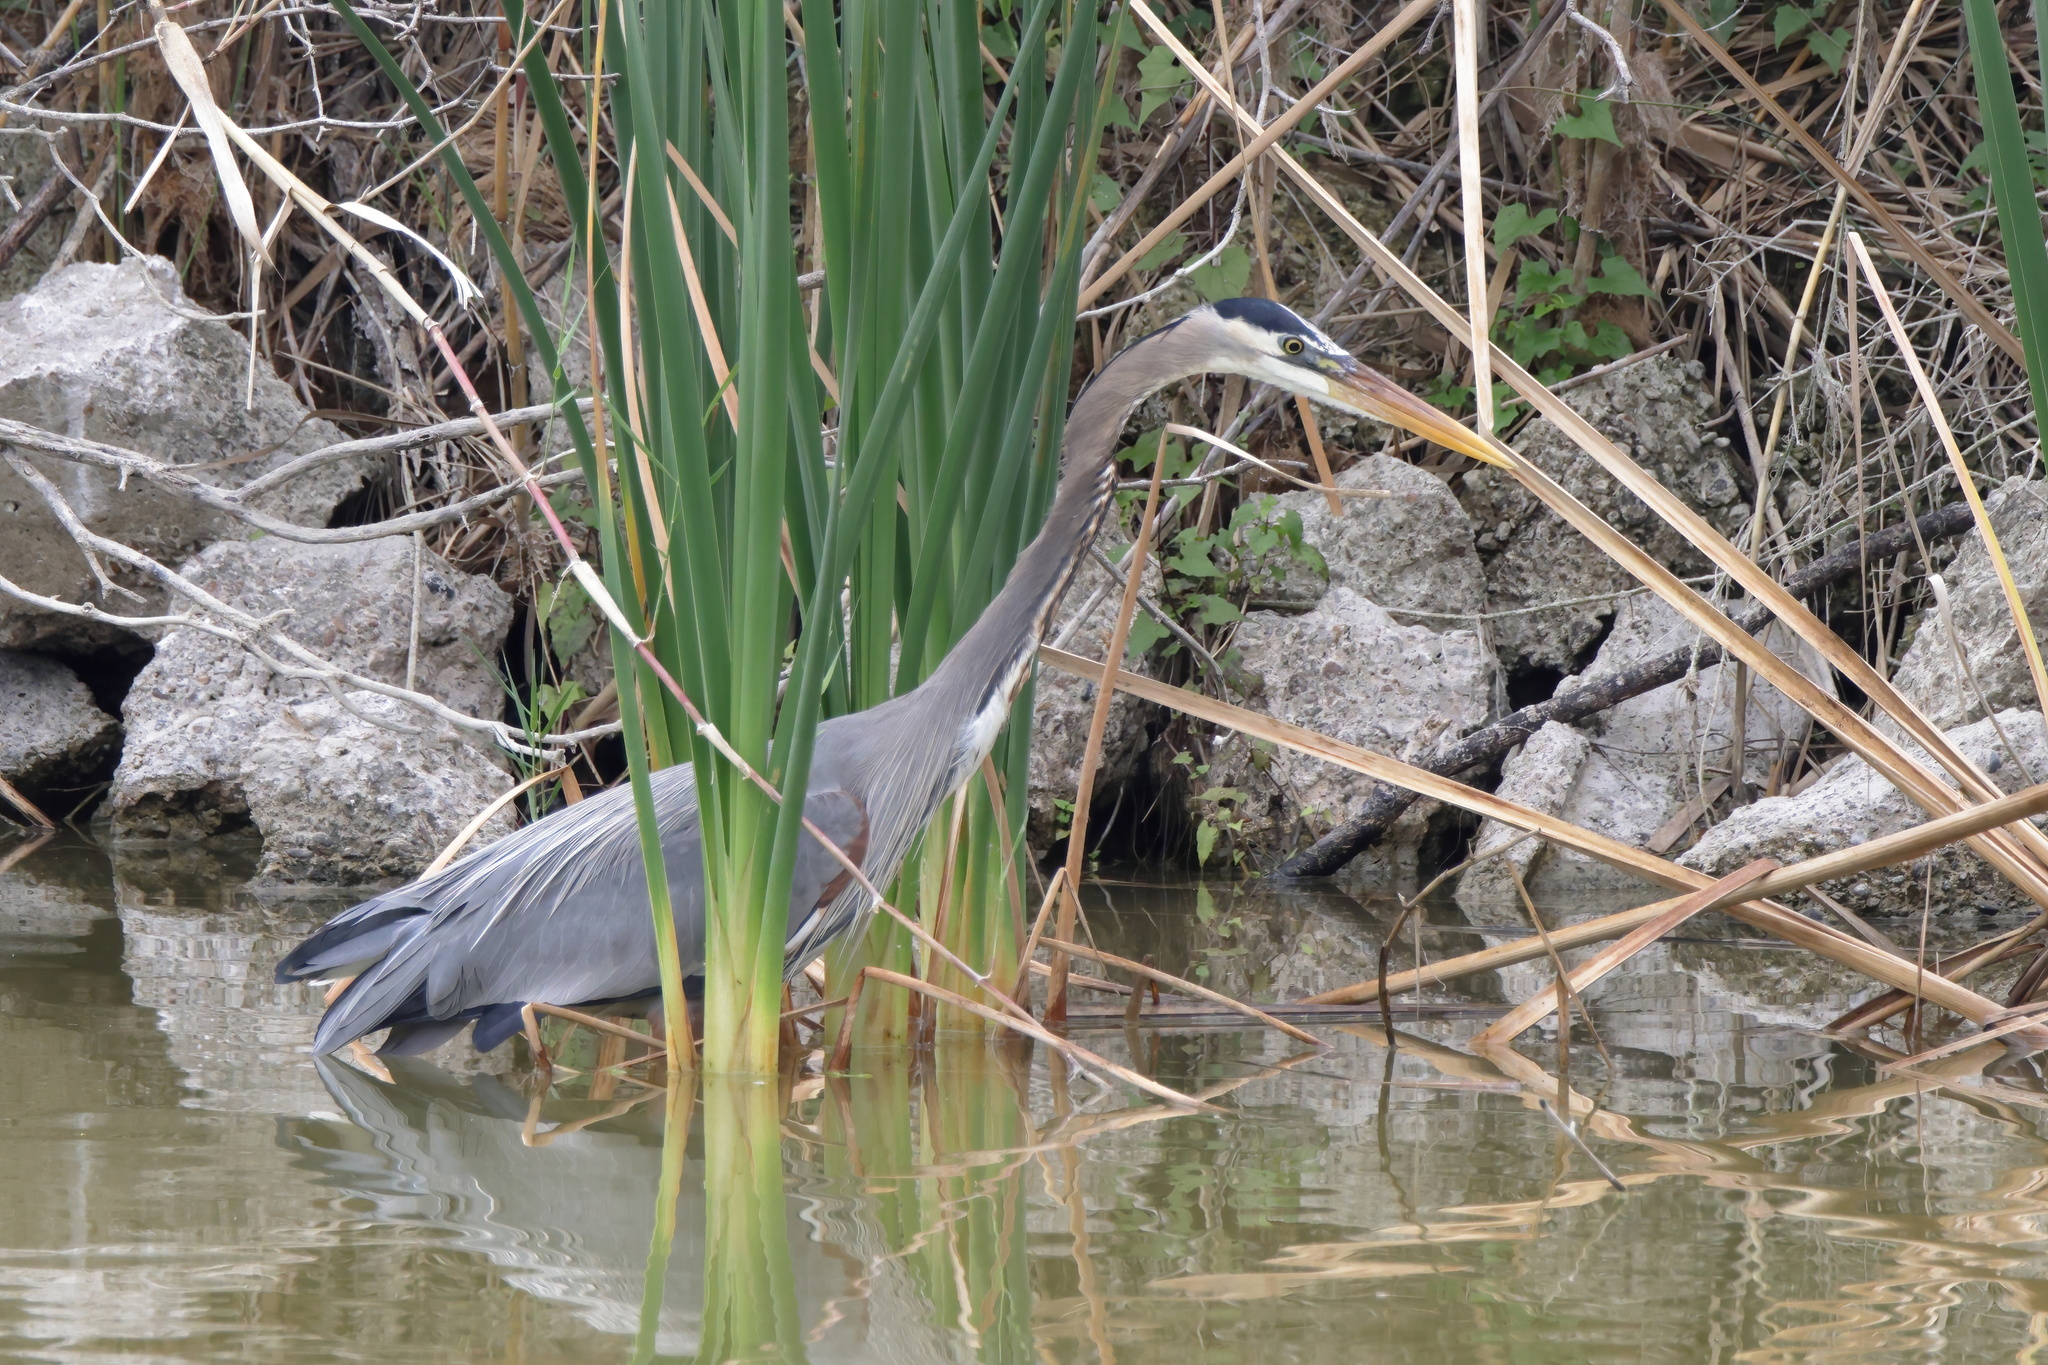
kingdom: Animalia
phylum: Chordata
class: Aves
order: Pelecaniformes
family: Ardeidae
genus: Ardea
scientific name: Ardea herodias
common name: Great blue heron
